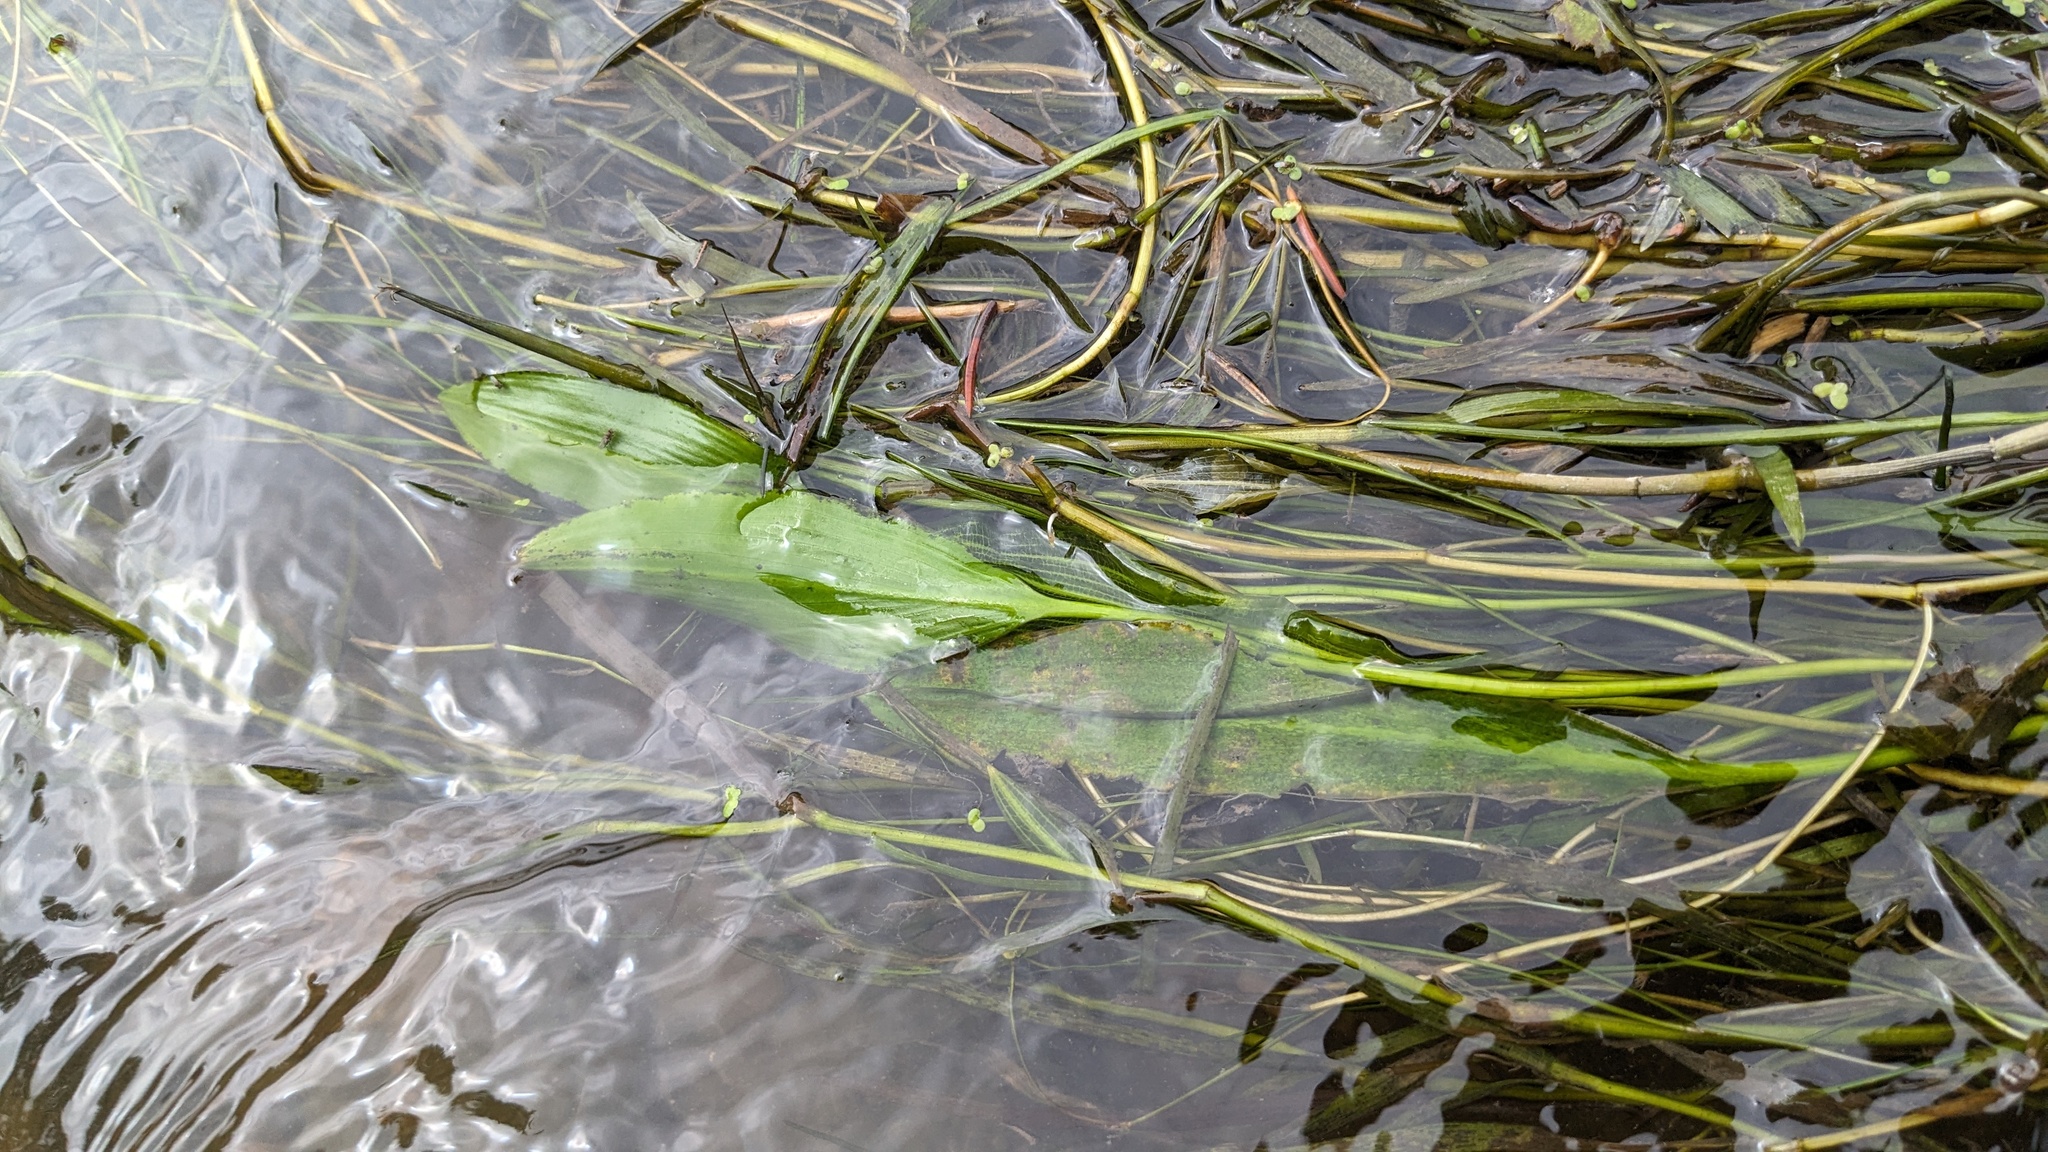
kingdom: Plantae
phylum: Tracheophyta
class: Liliopsida
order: Alismatales
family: Potamogetonaceae
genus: Potamogeton
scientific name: Potamogeton nodosus
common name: Loddon pondweed
